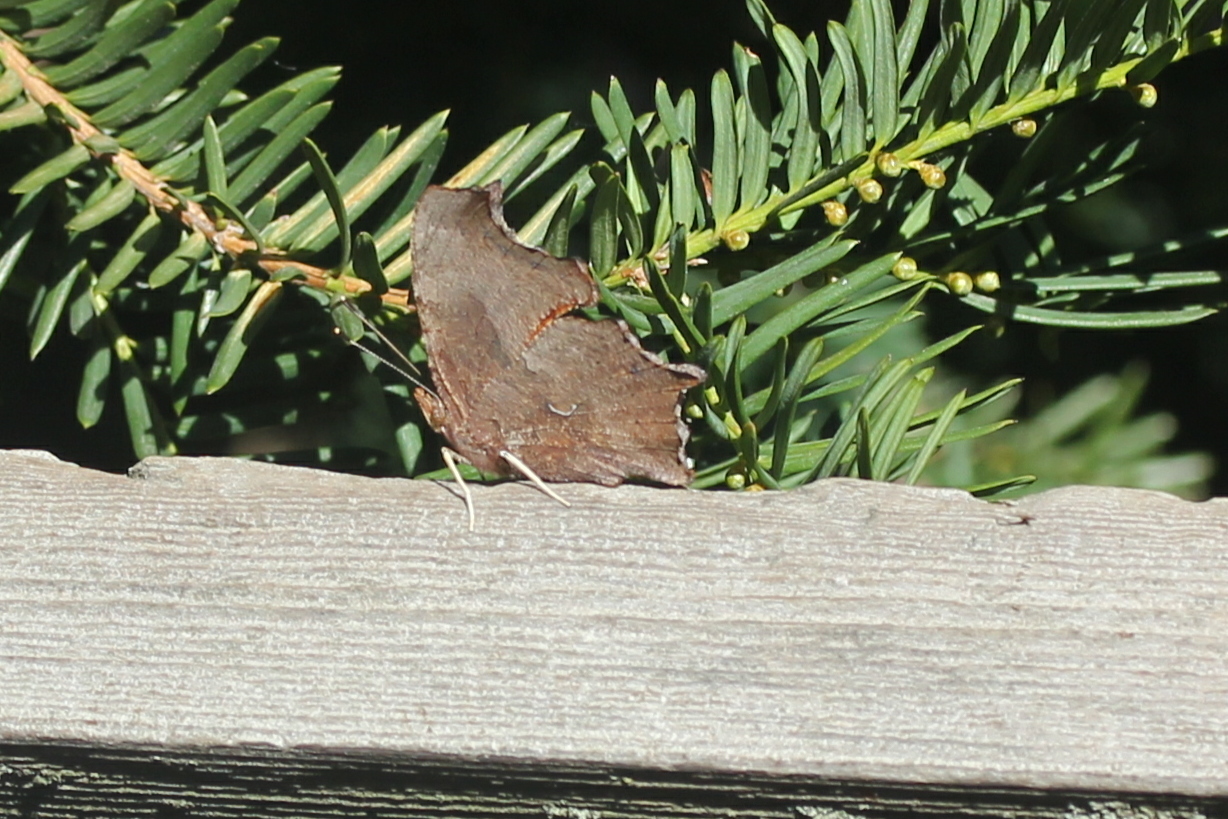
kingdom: Animalia
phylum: Arthropoda
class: Insecta
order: Lepidoptera
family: Nymphalidae
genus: Polygonia
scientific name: Polygonia comma
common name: Eastern comma
